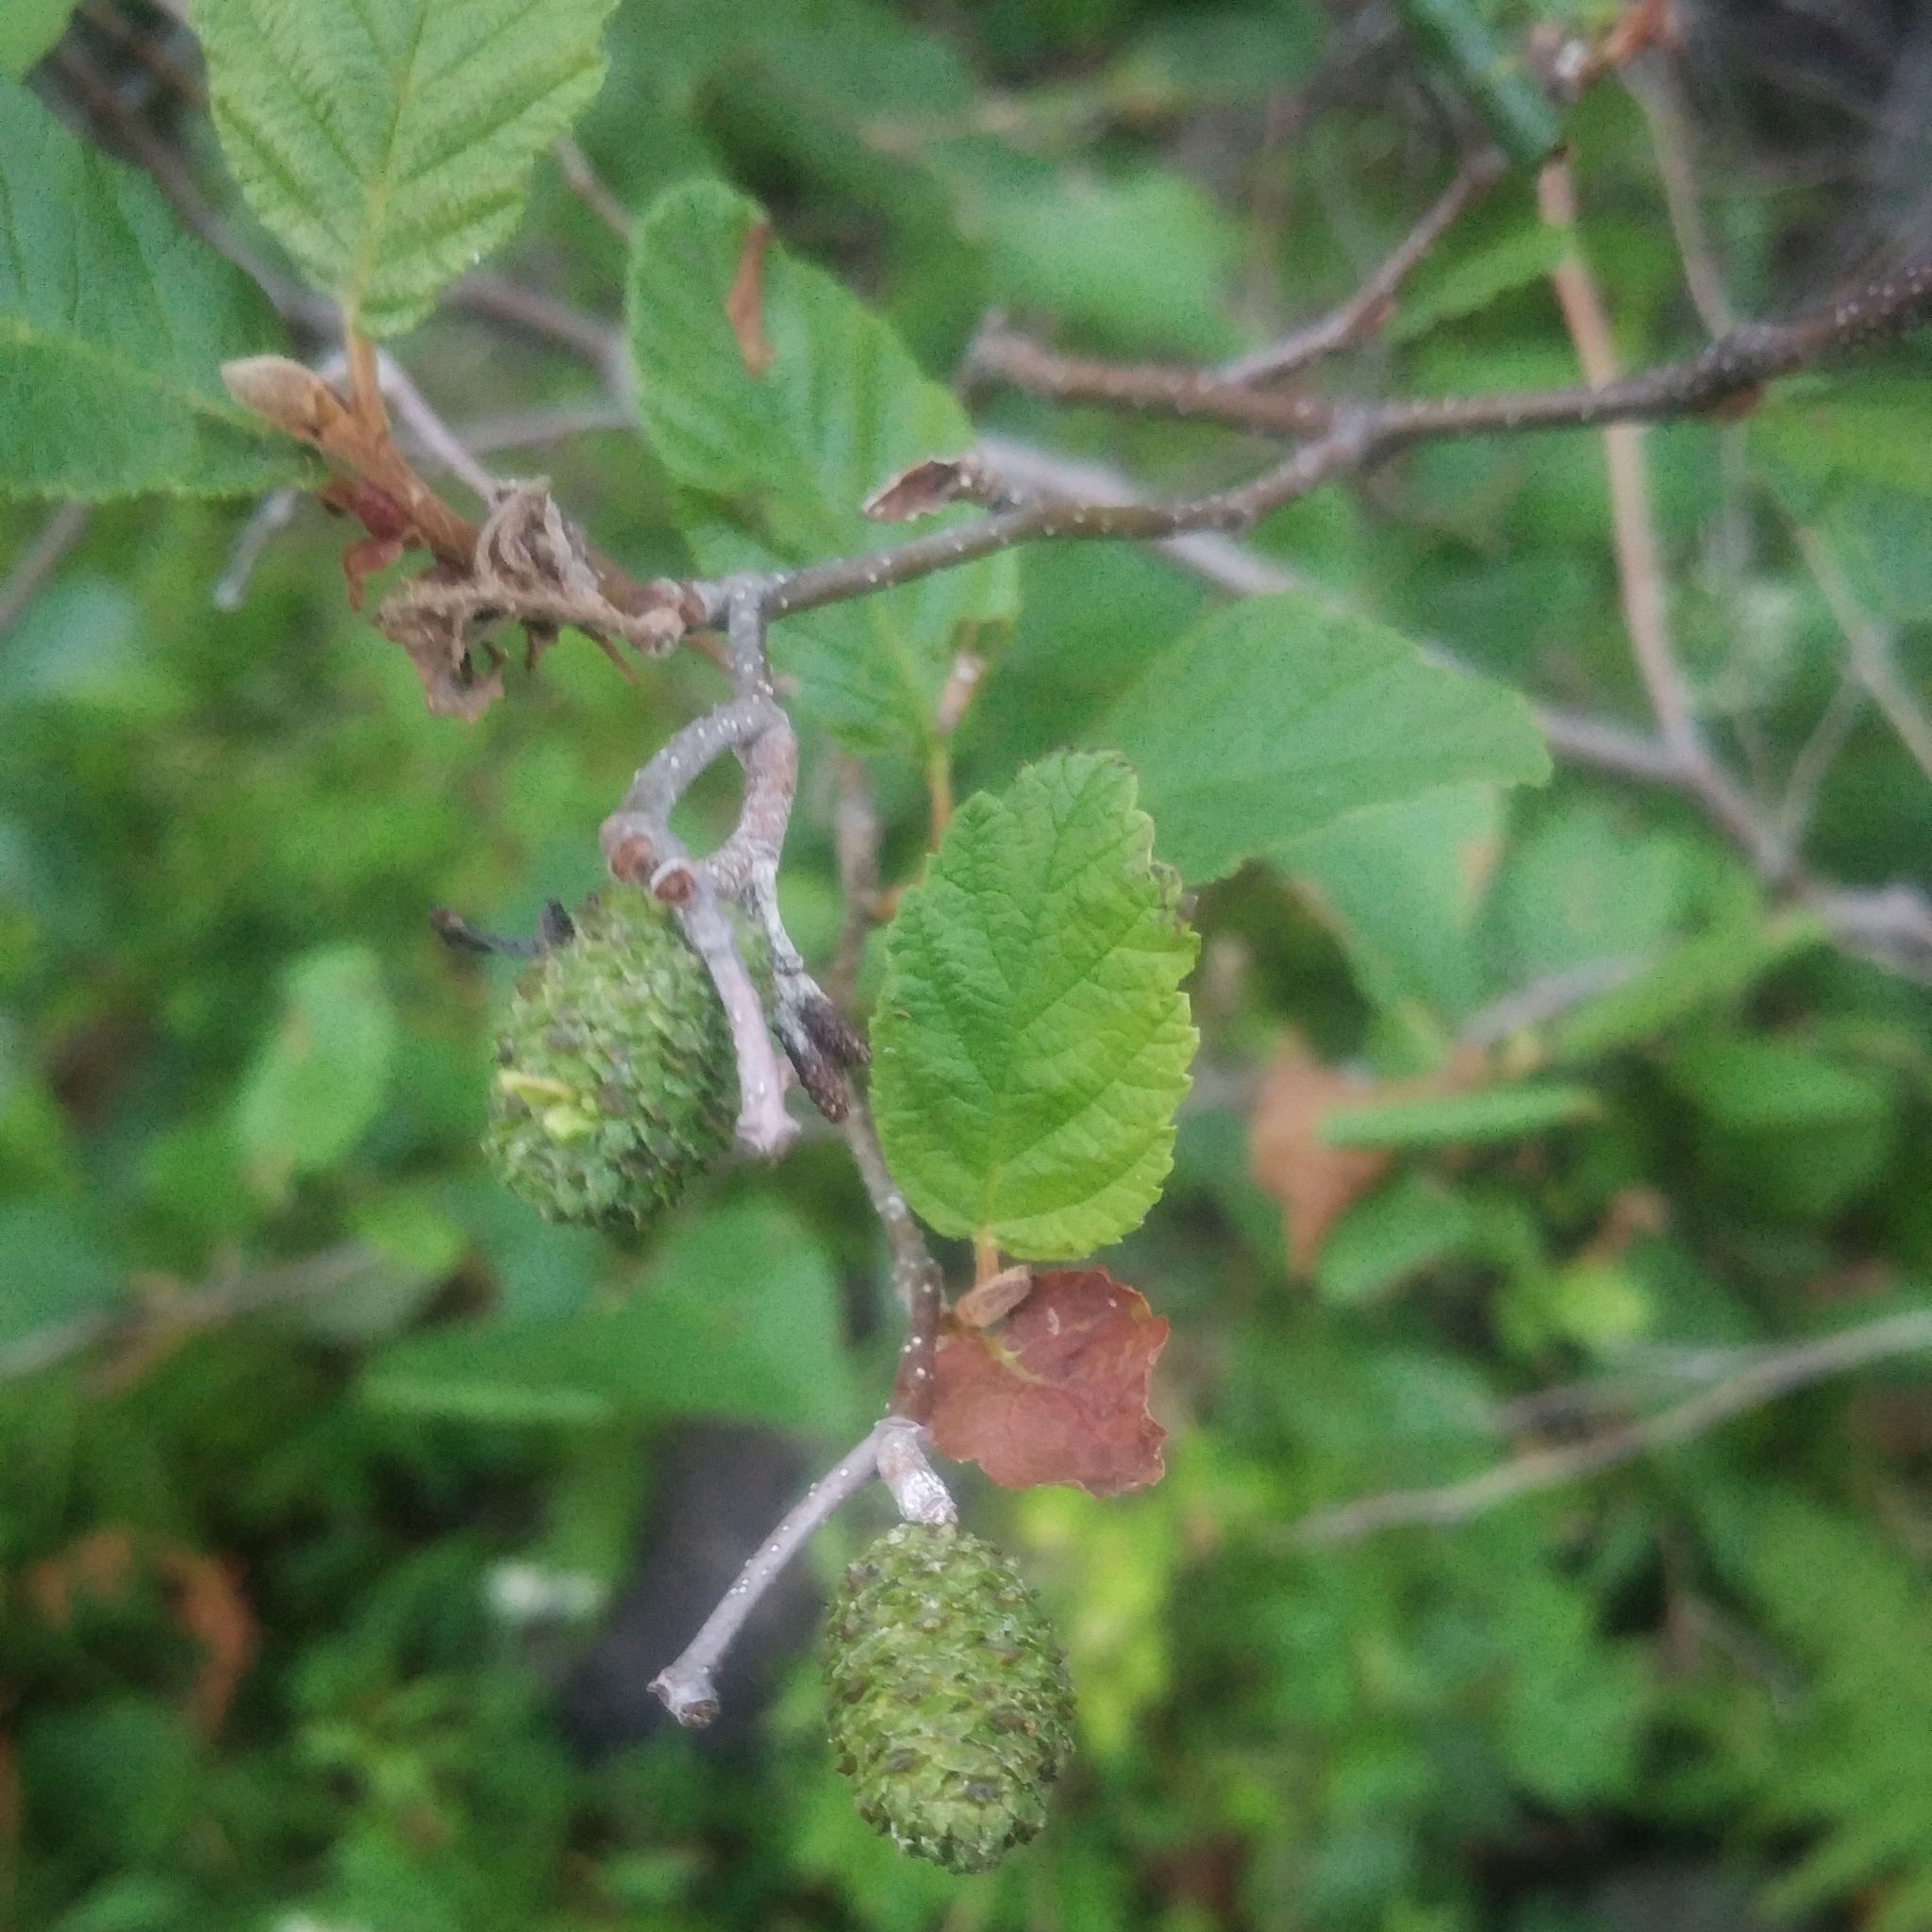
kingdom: Plantae
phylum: Tracheophyta
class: Magnoliopsida
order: Fagales
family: Betulaceae
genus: Alnus
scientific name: Alnus incana
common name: Grey alder
